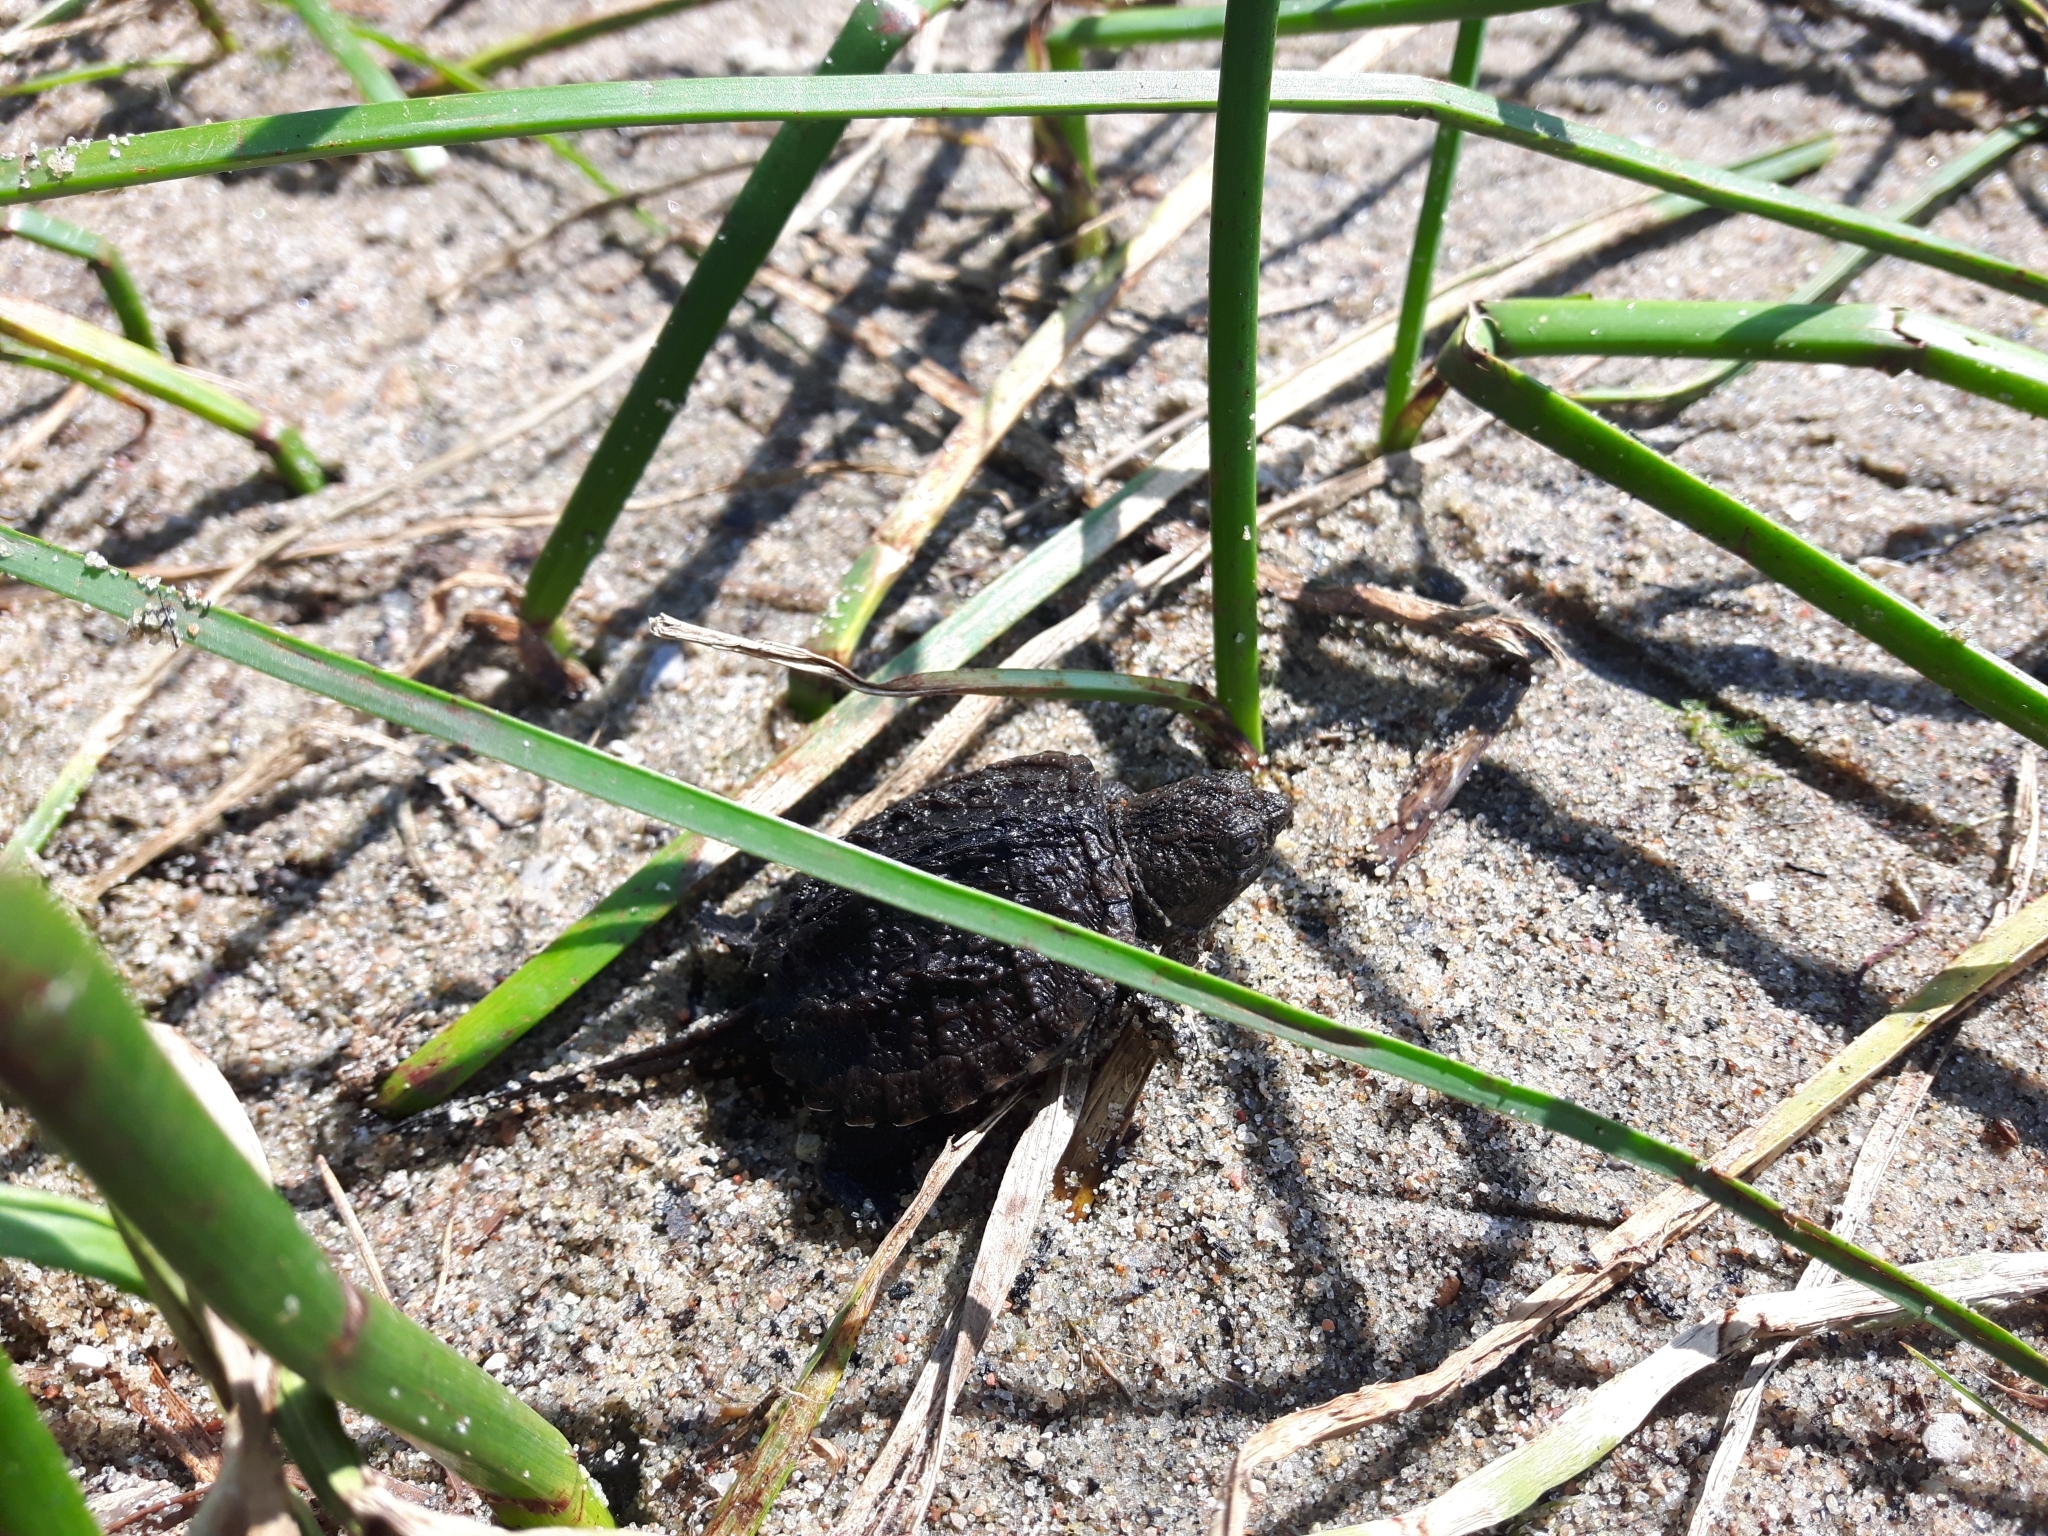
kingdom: Animalia
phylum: Chordata
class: Testudines
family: Chelydridae
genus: Chelydra
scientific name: Chelydra serpentina
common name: Common snapping turtle
